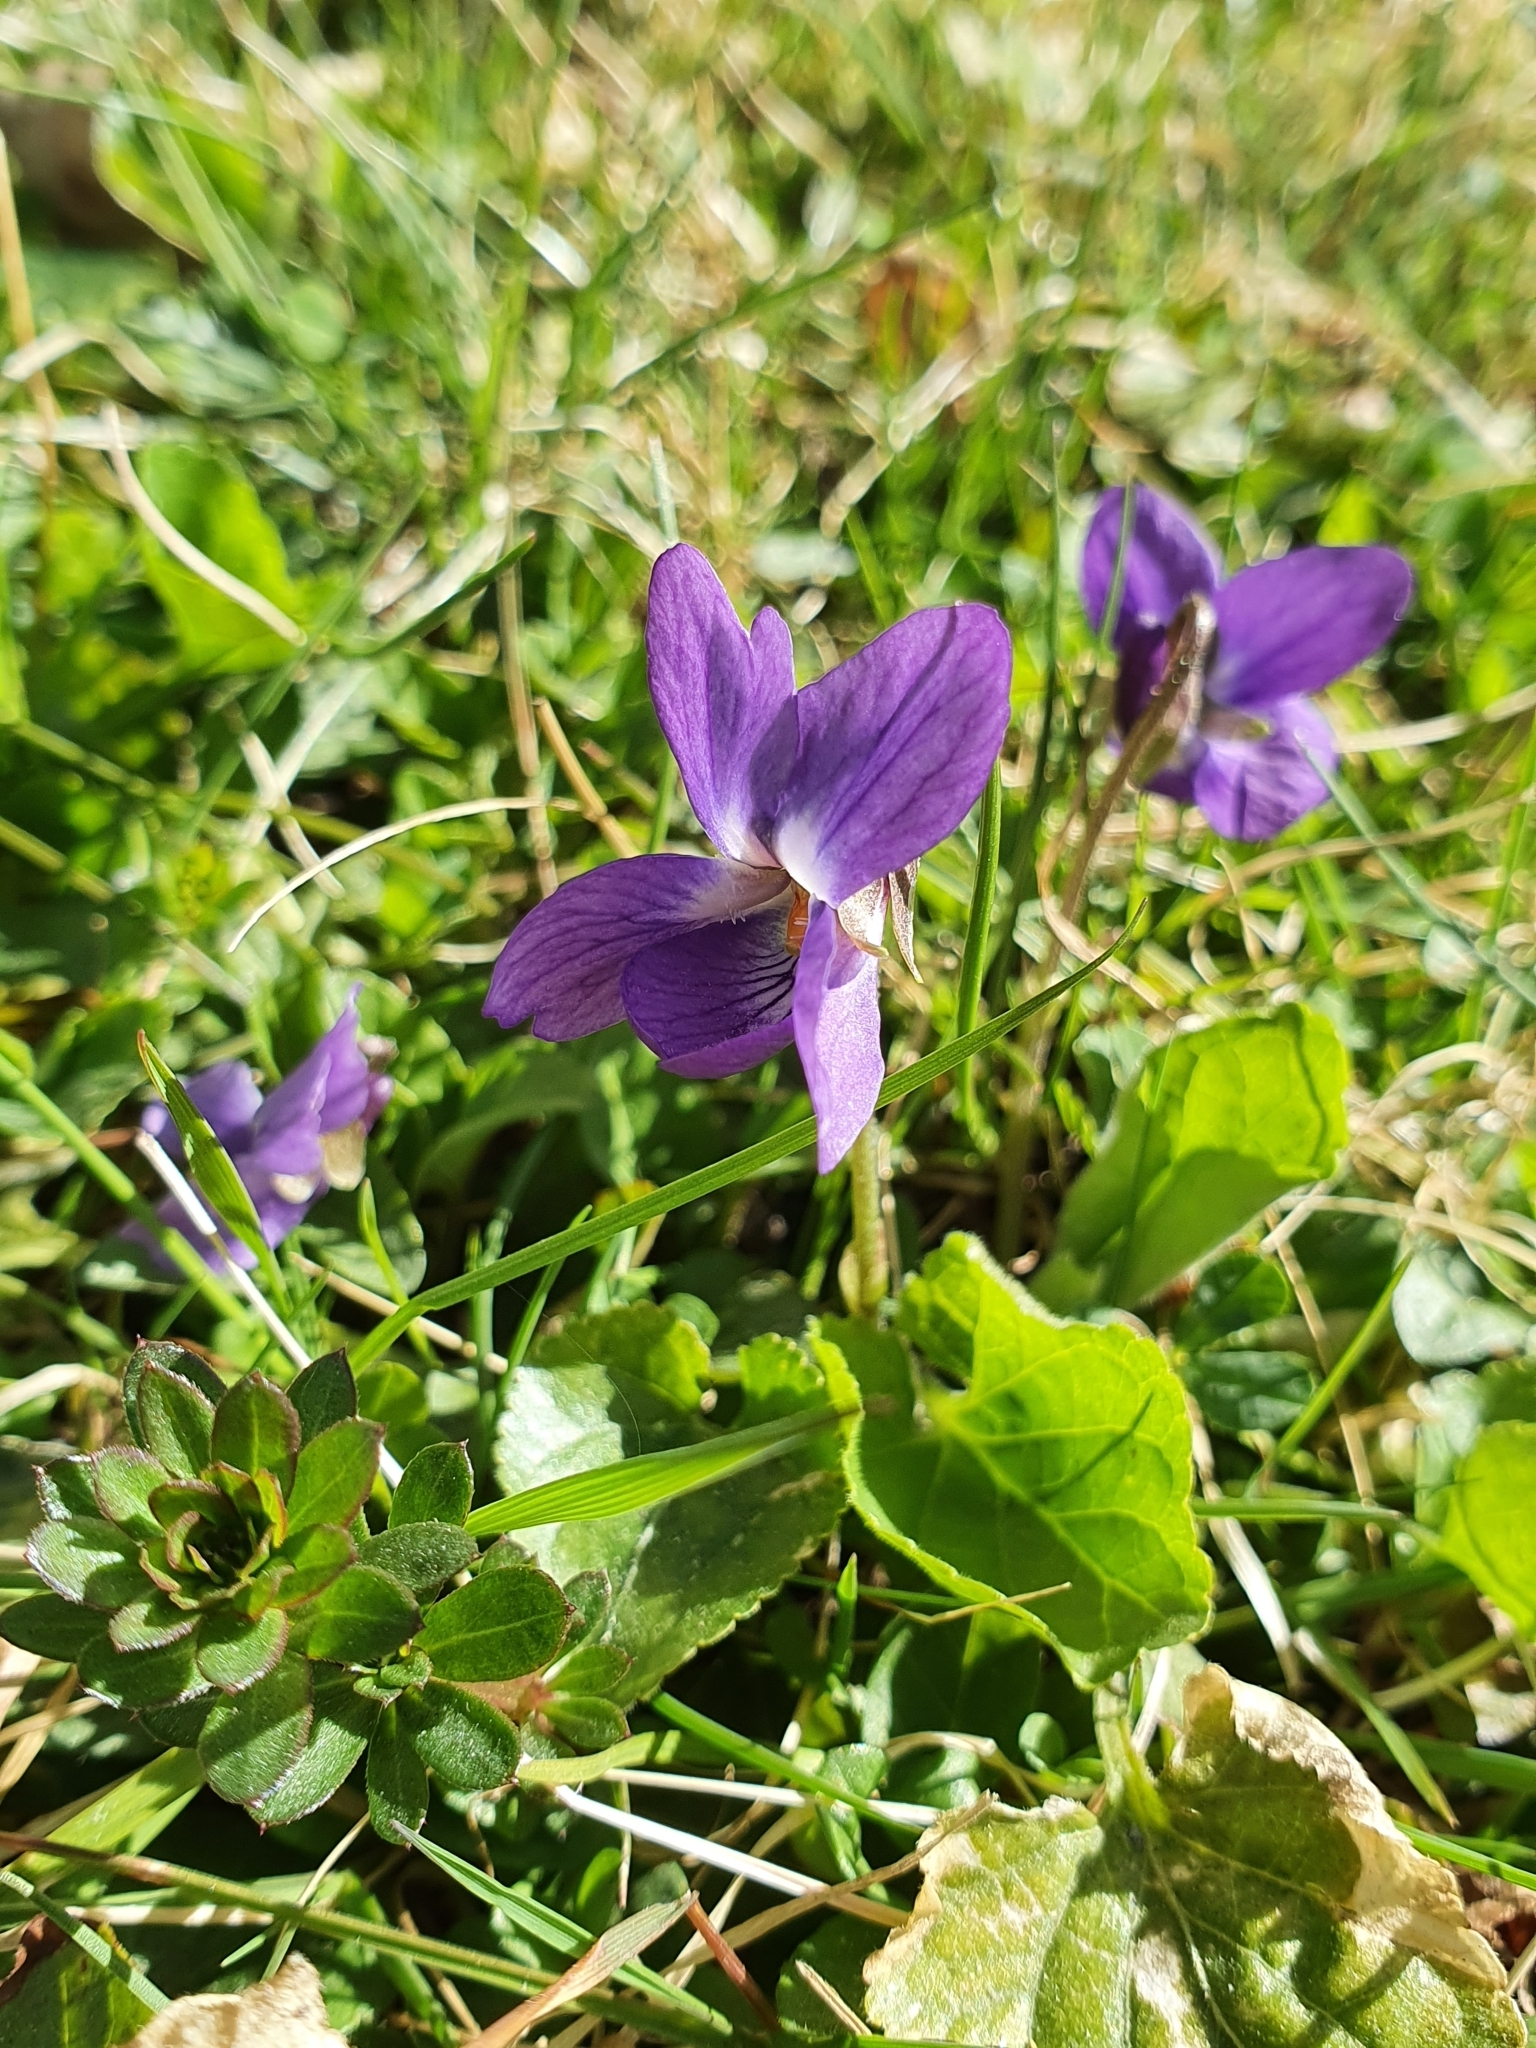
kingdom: Plantae
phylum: Tracheophyta
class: Magnoliopsida
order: Malpighiales
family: Violaceae
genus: Viola
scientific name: Viola odorata
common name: Sweet violet
